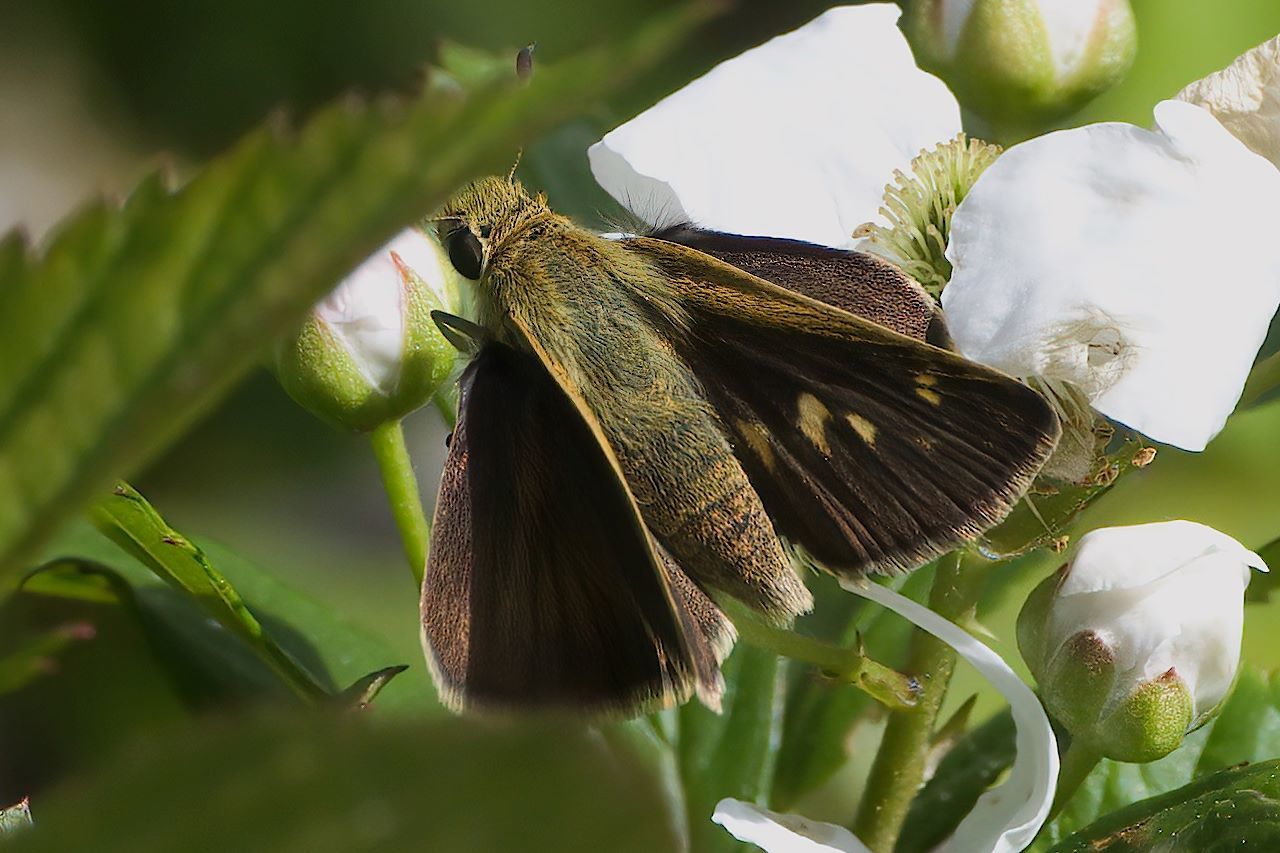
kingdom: Animalia
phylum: Arthropoda
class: Insecta
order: Lepidoptera
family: Hesperiidae
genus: Polites
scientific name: Polites egeremet
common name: Northern broken-dash
